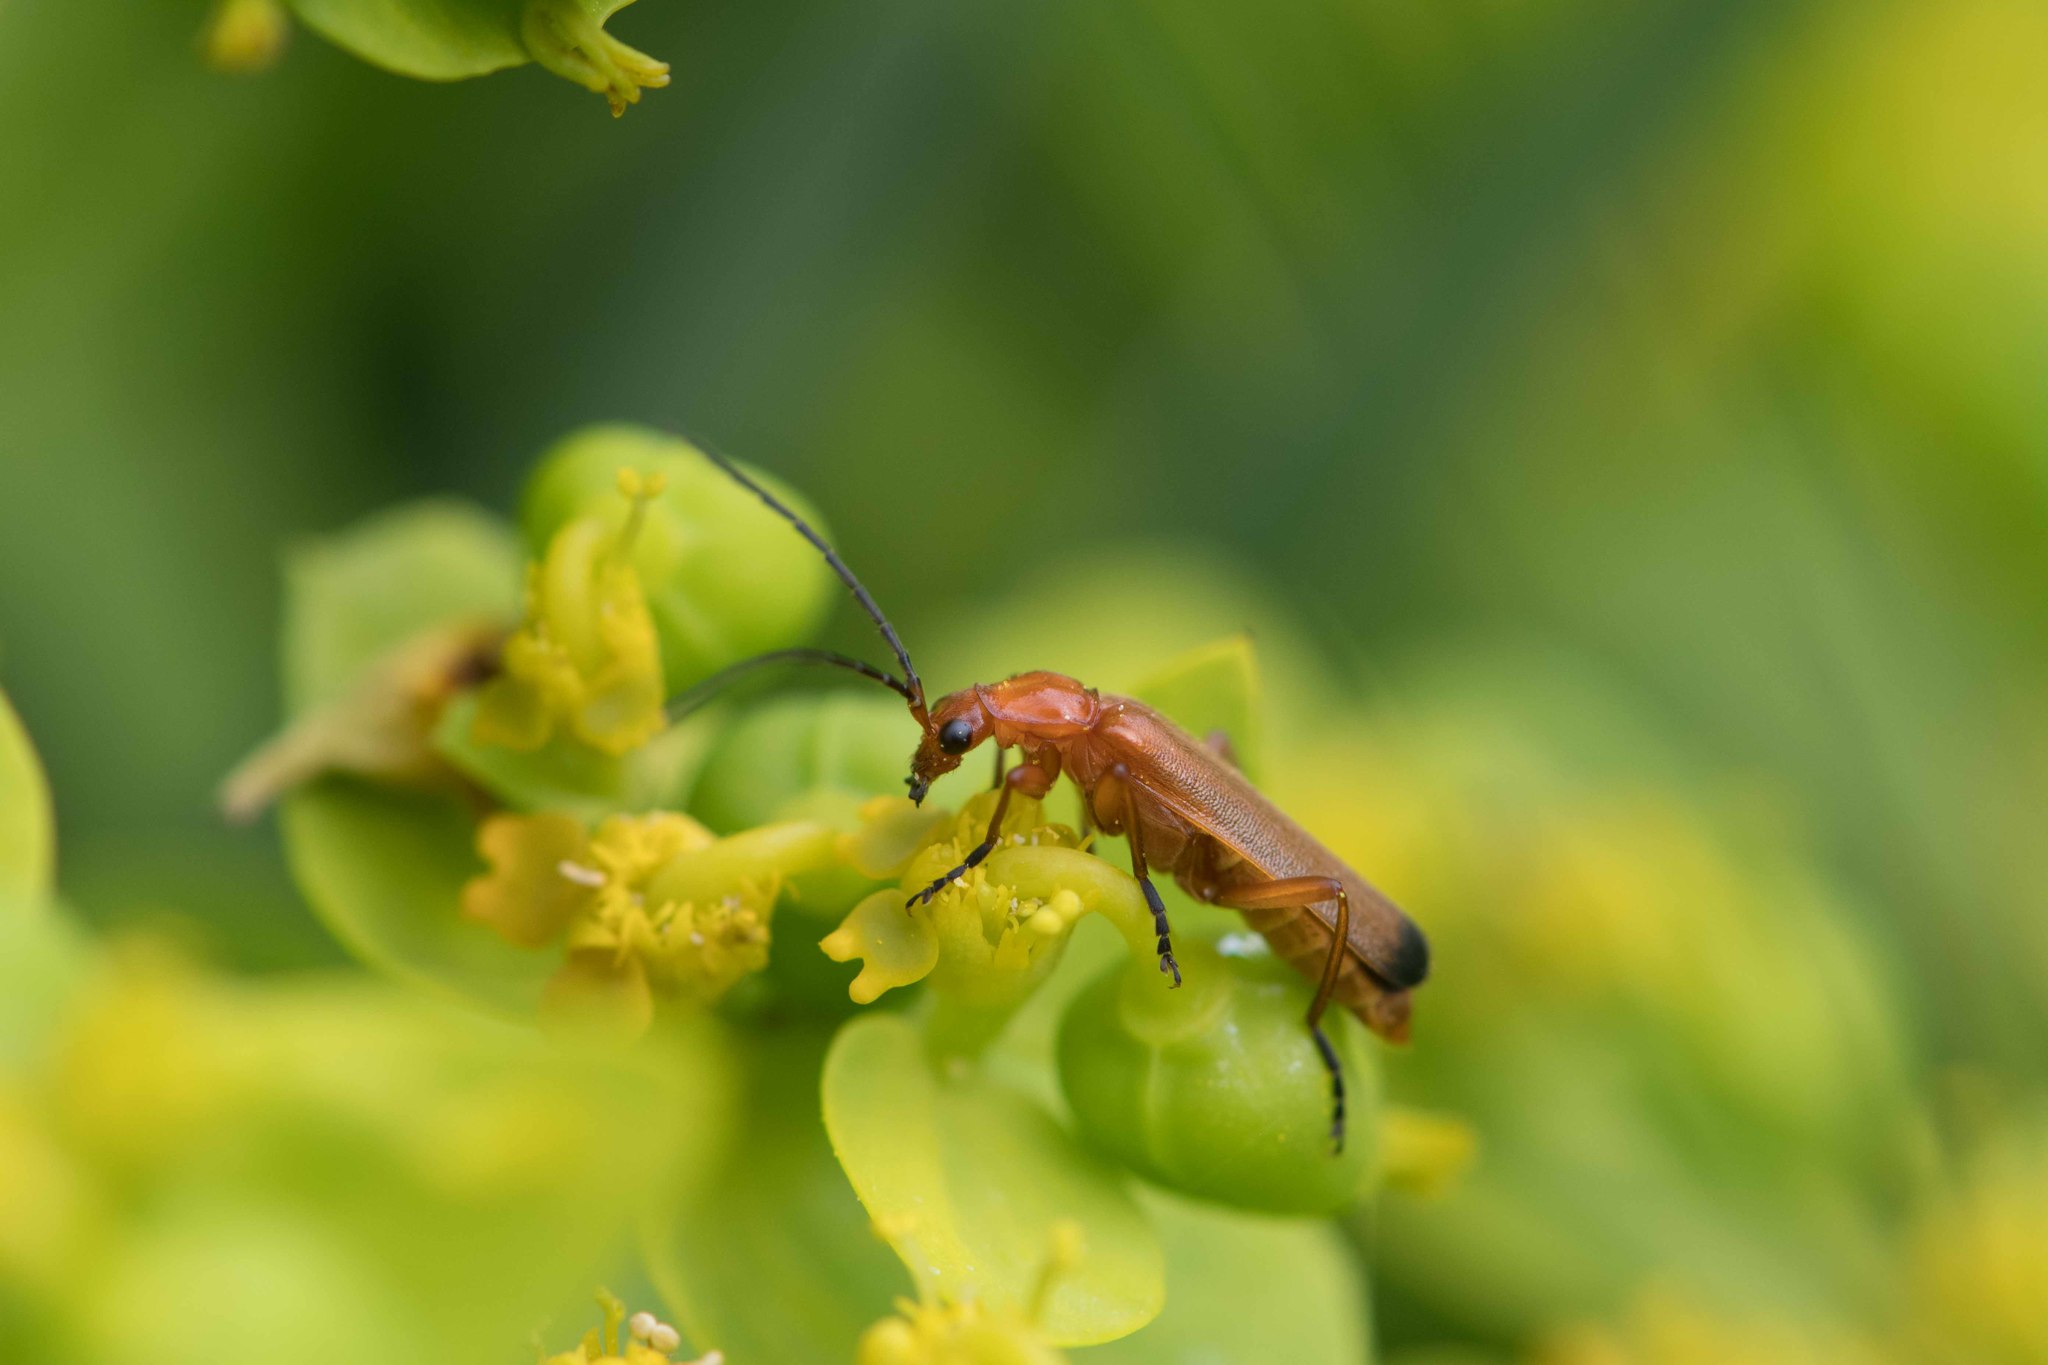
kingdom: Animalia
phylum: Arthropoda
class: Insecta
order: Coleoptera
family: Cantharidae
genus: Rhagonycha
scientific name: Rhagonycha fulva
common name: Common red soldier beetle
